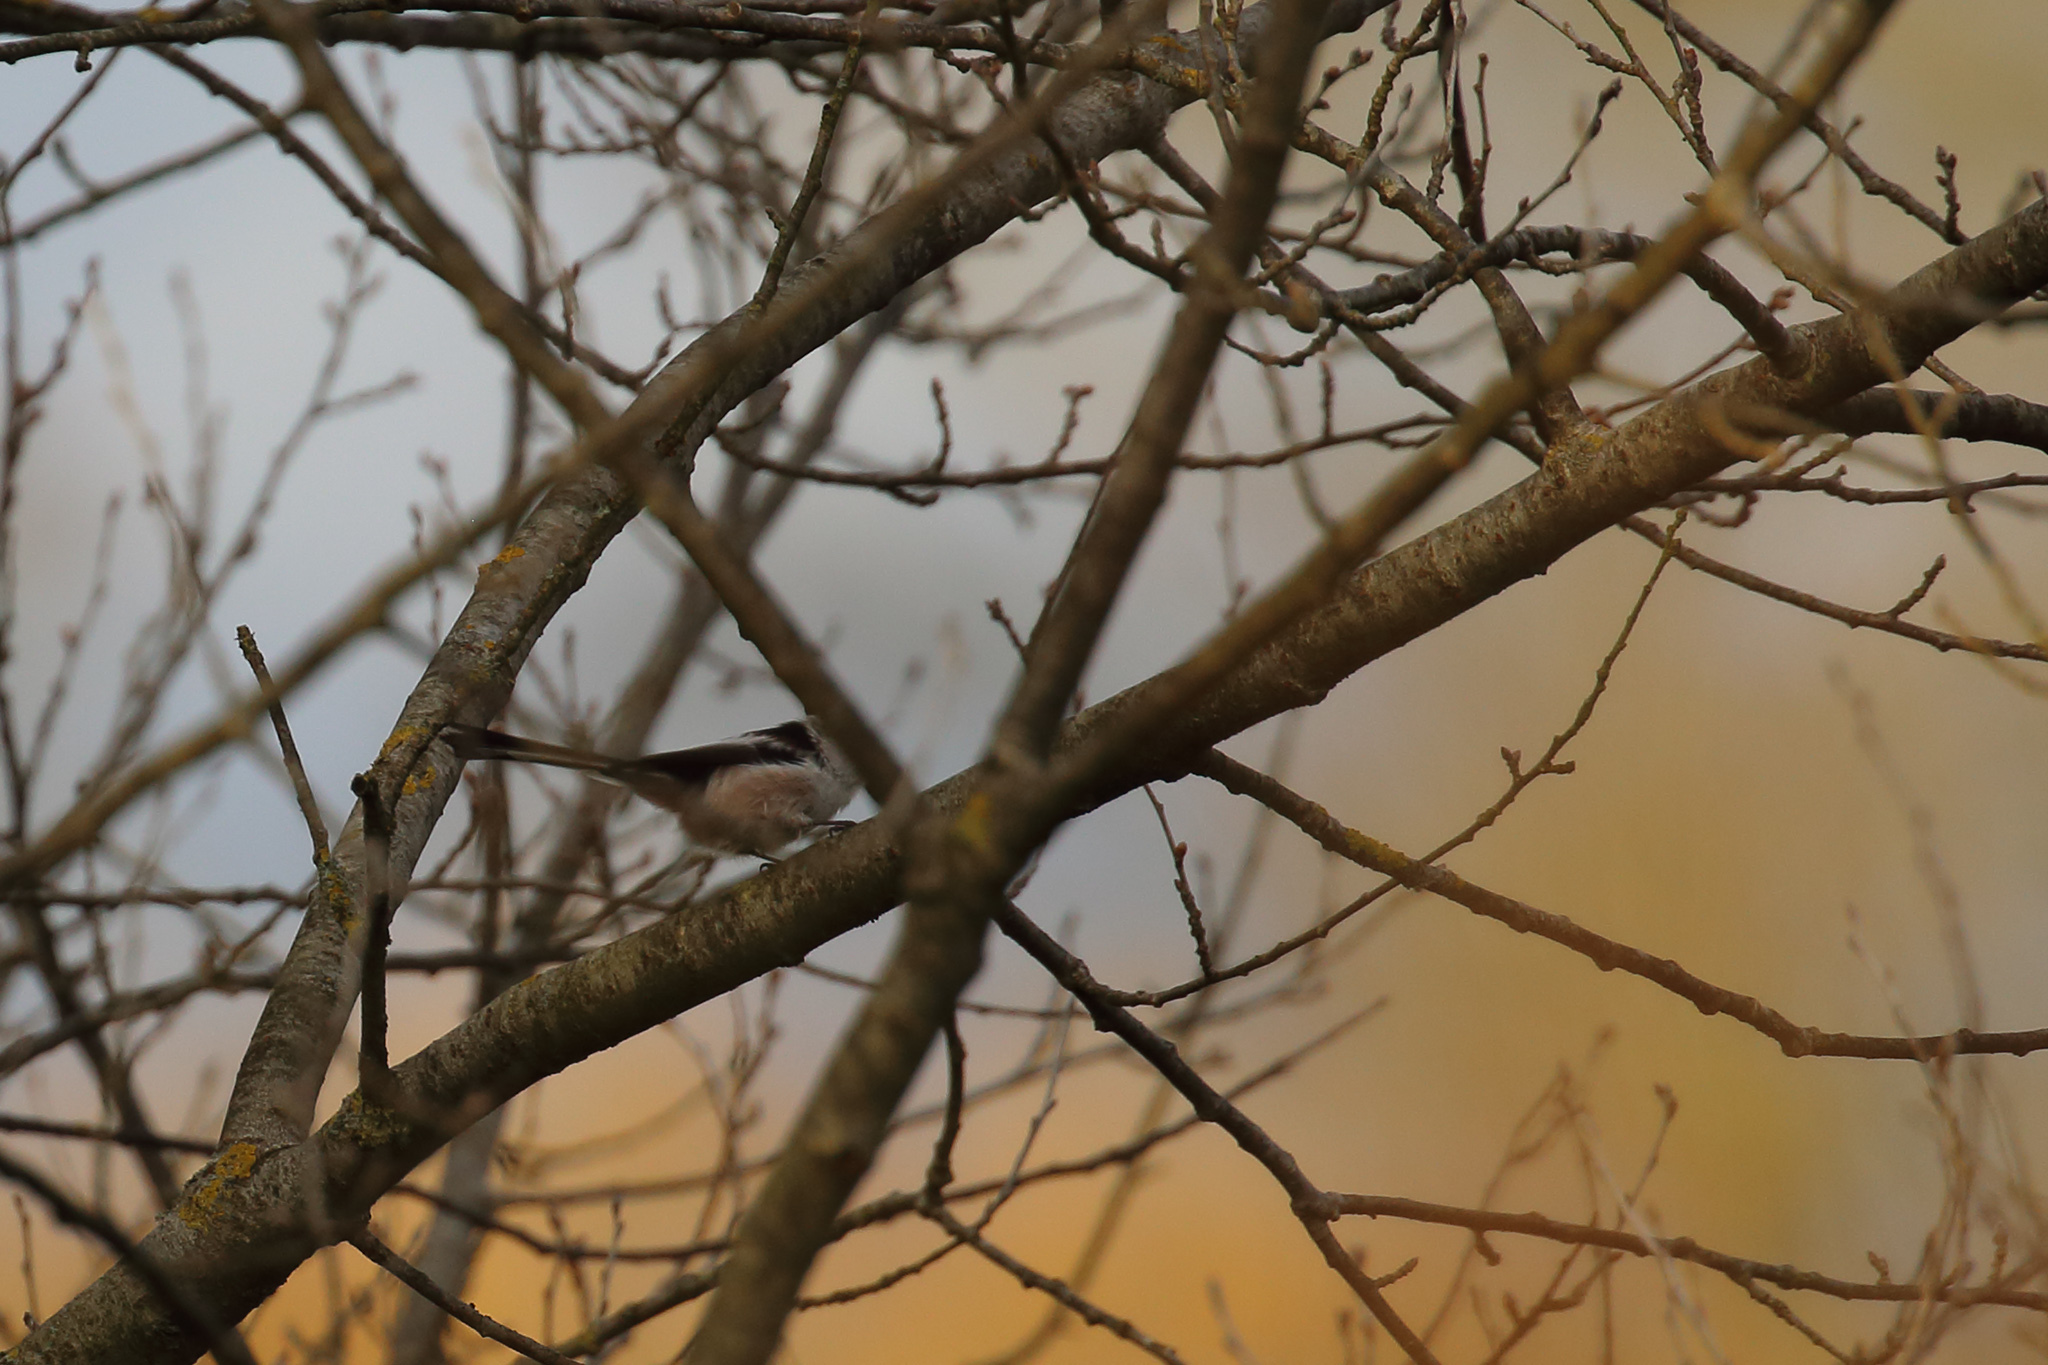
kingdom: Animalia
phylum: Chordata
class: Aves
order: Passeriformes
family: Aegithalidae
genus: Aegithalos
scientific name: Aegithalos caudatus
